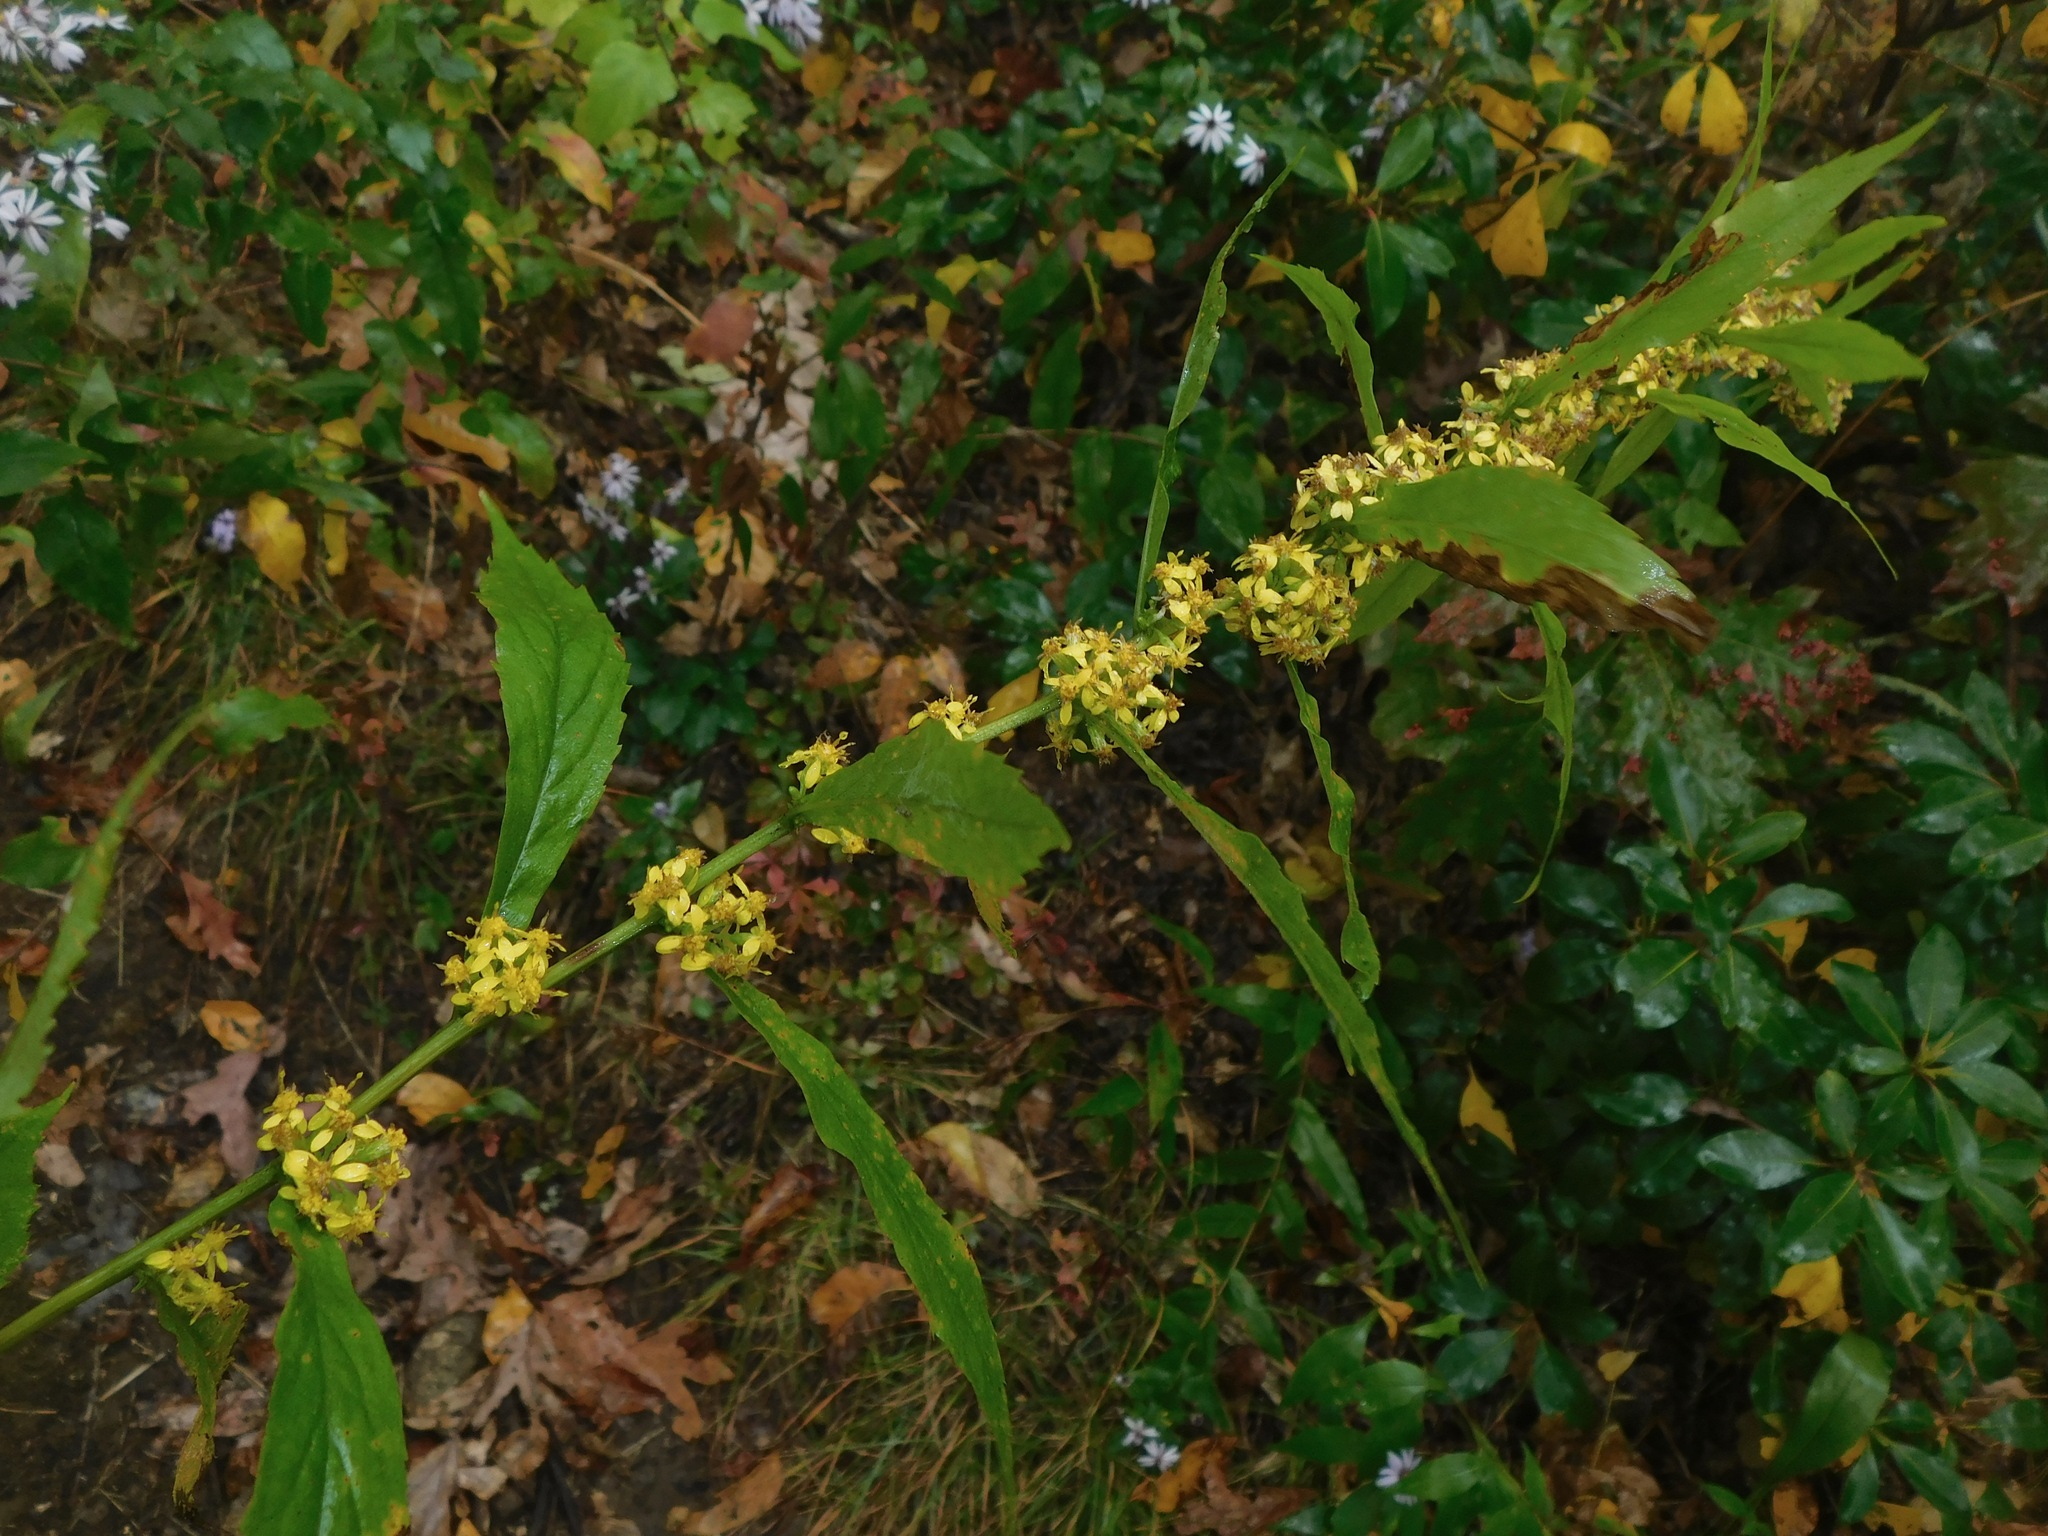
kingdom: Plantae
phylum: Tracheophyta
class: Magnoliopsida
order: Asterales
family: Asteraceae
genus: Solidago
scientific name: Solidago caesia
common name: Woodland goldenrod
